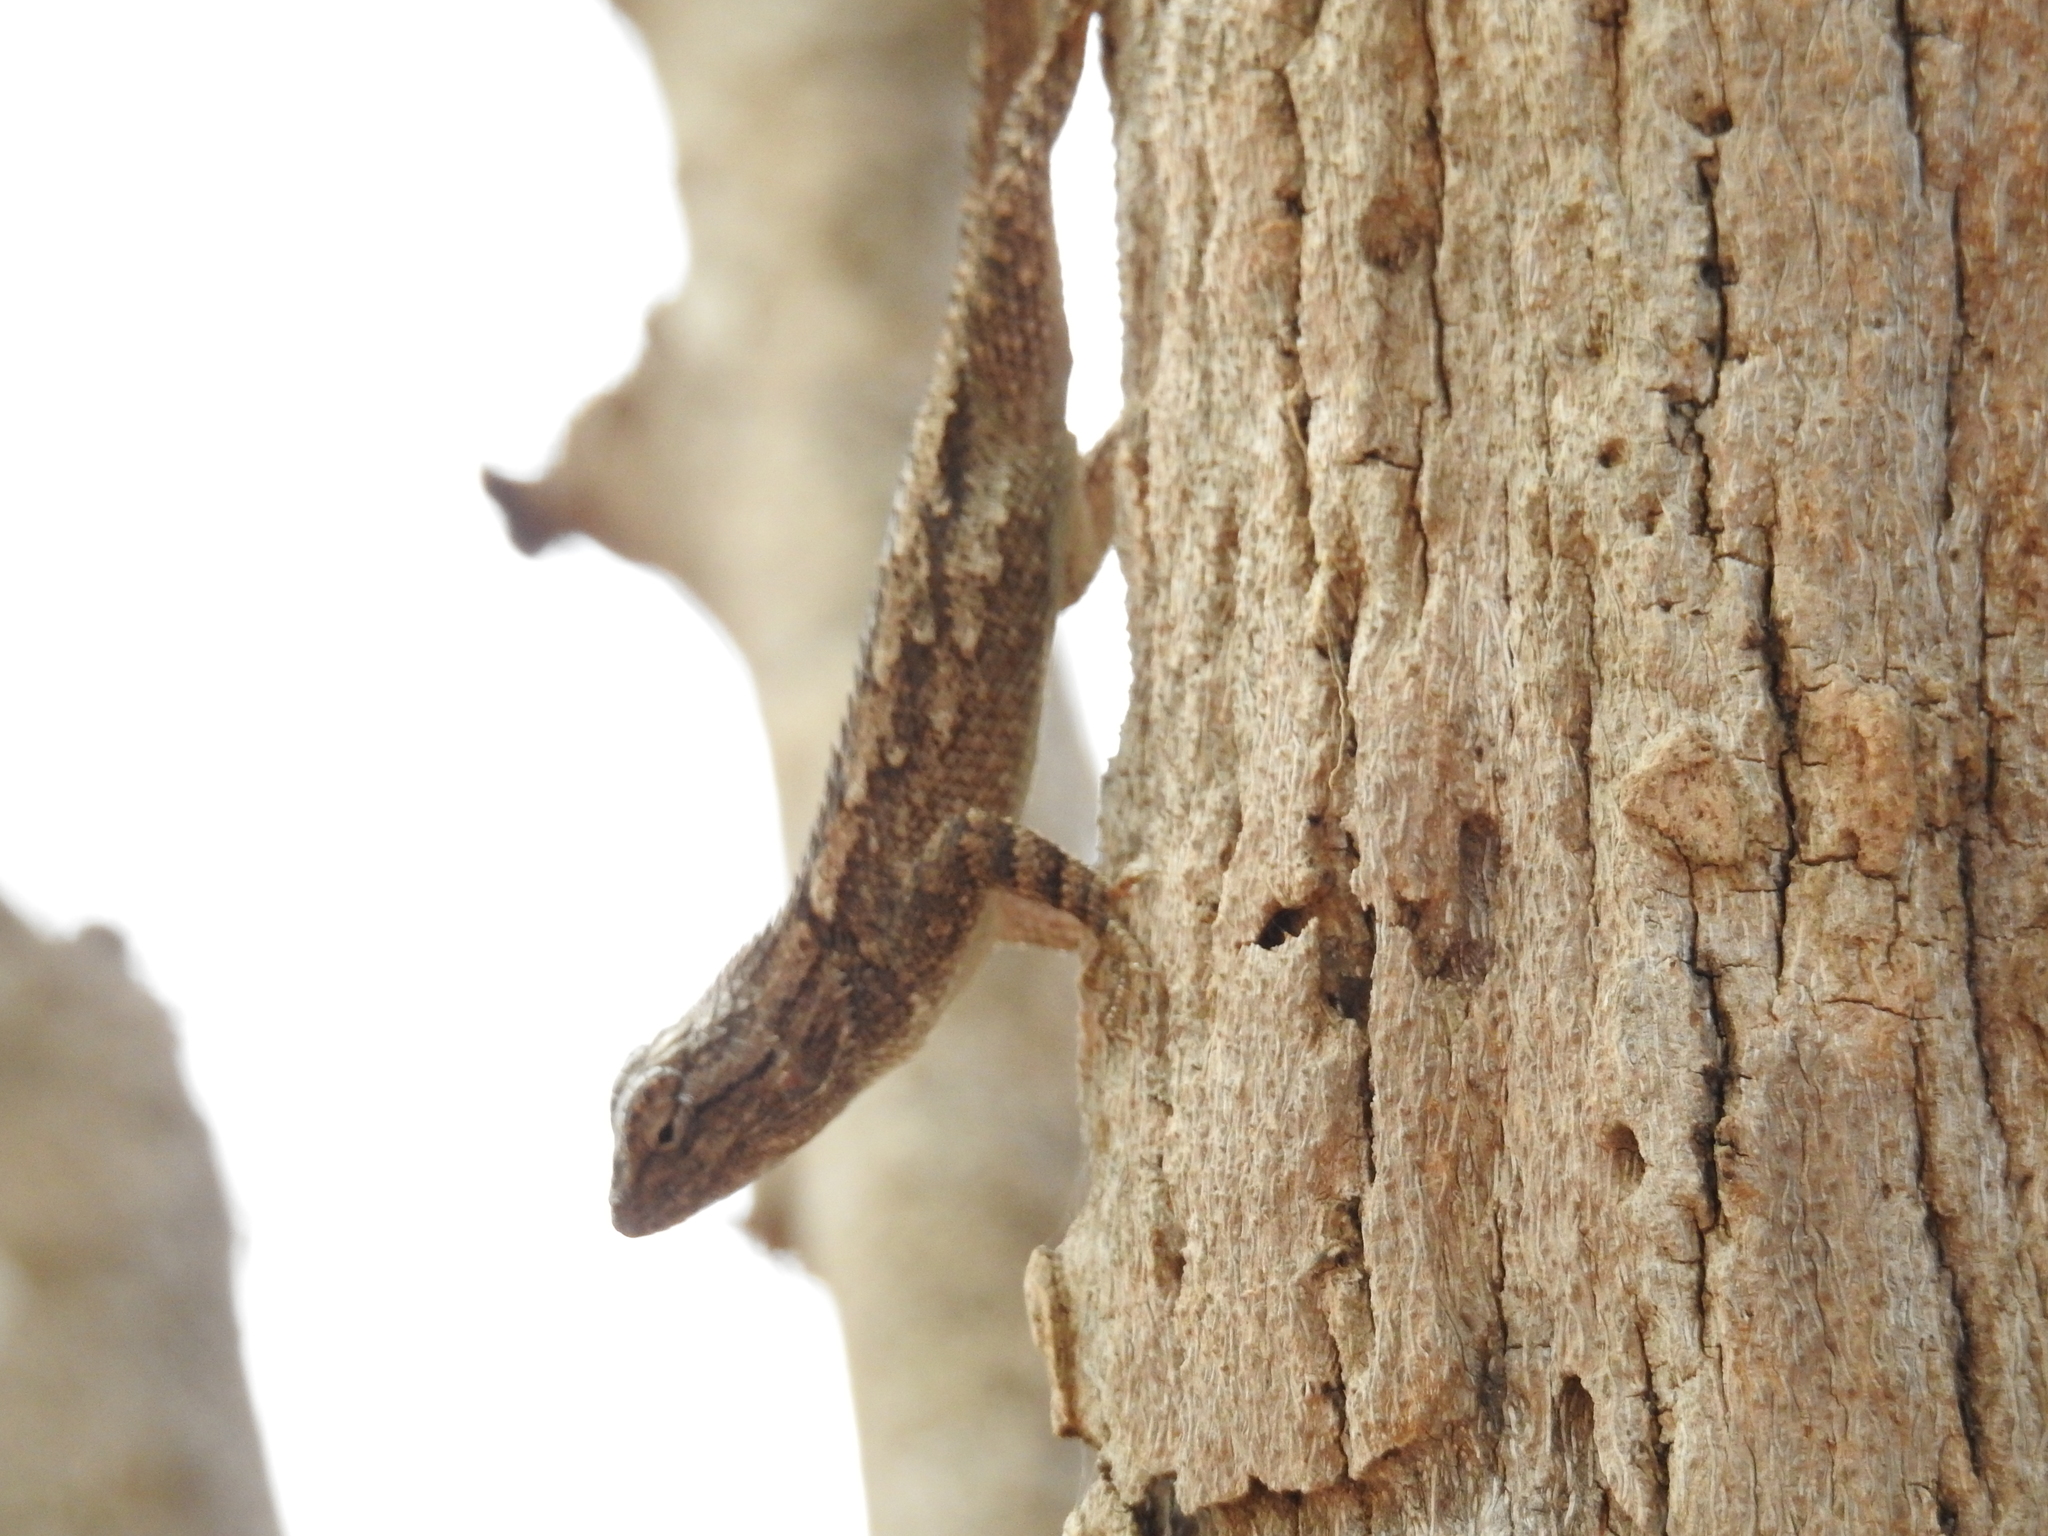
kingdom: Animalia
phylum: Chordata
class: Squamata
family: Phrynosomatidae
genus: Sceloporus
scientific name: Sceloporus clarkii
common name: Clark's spiny lizard
